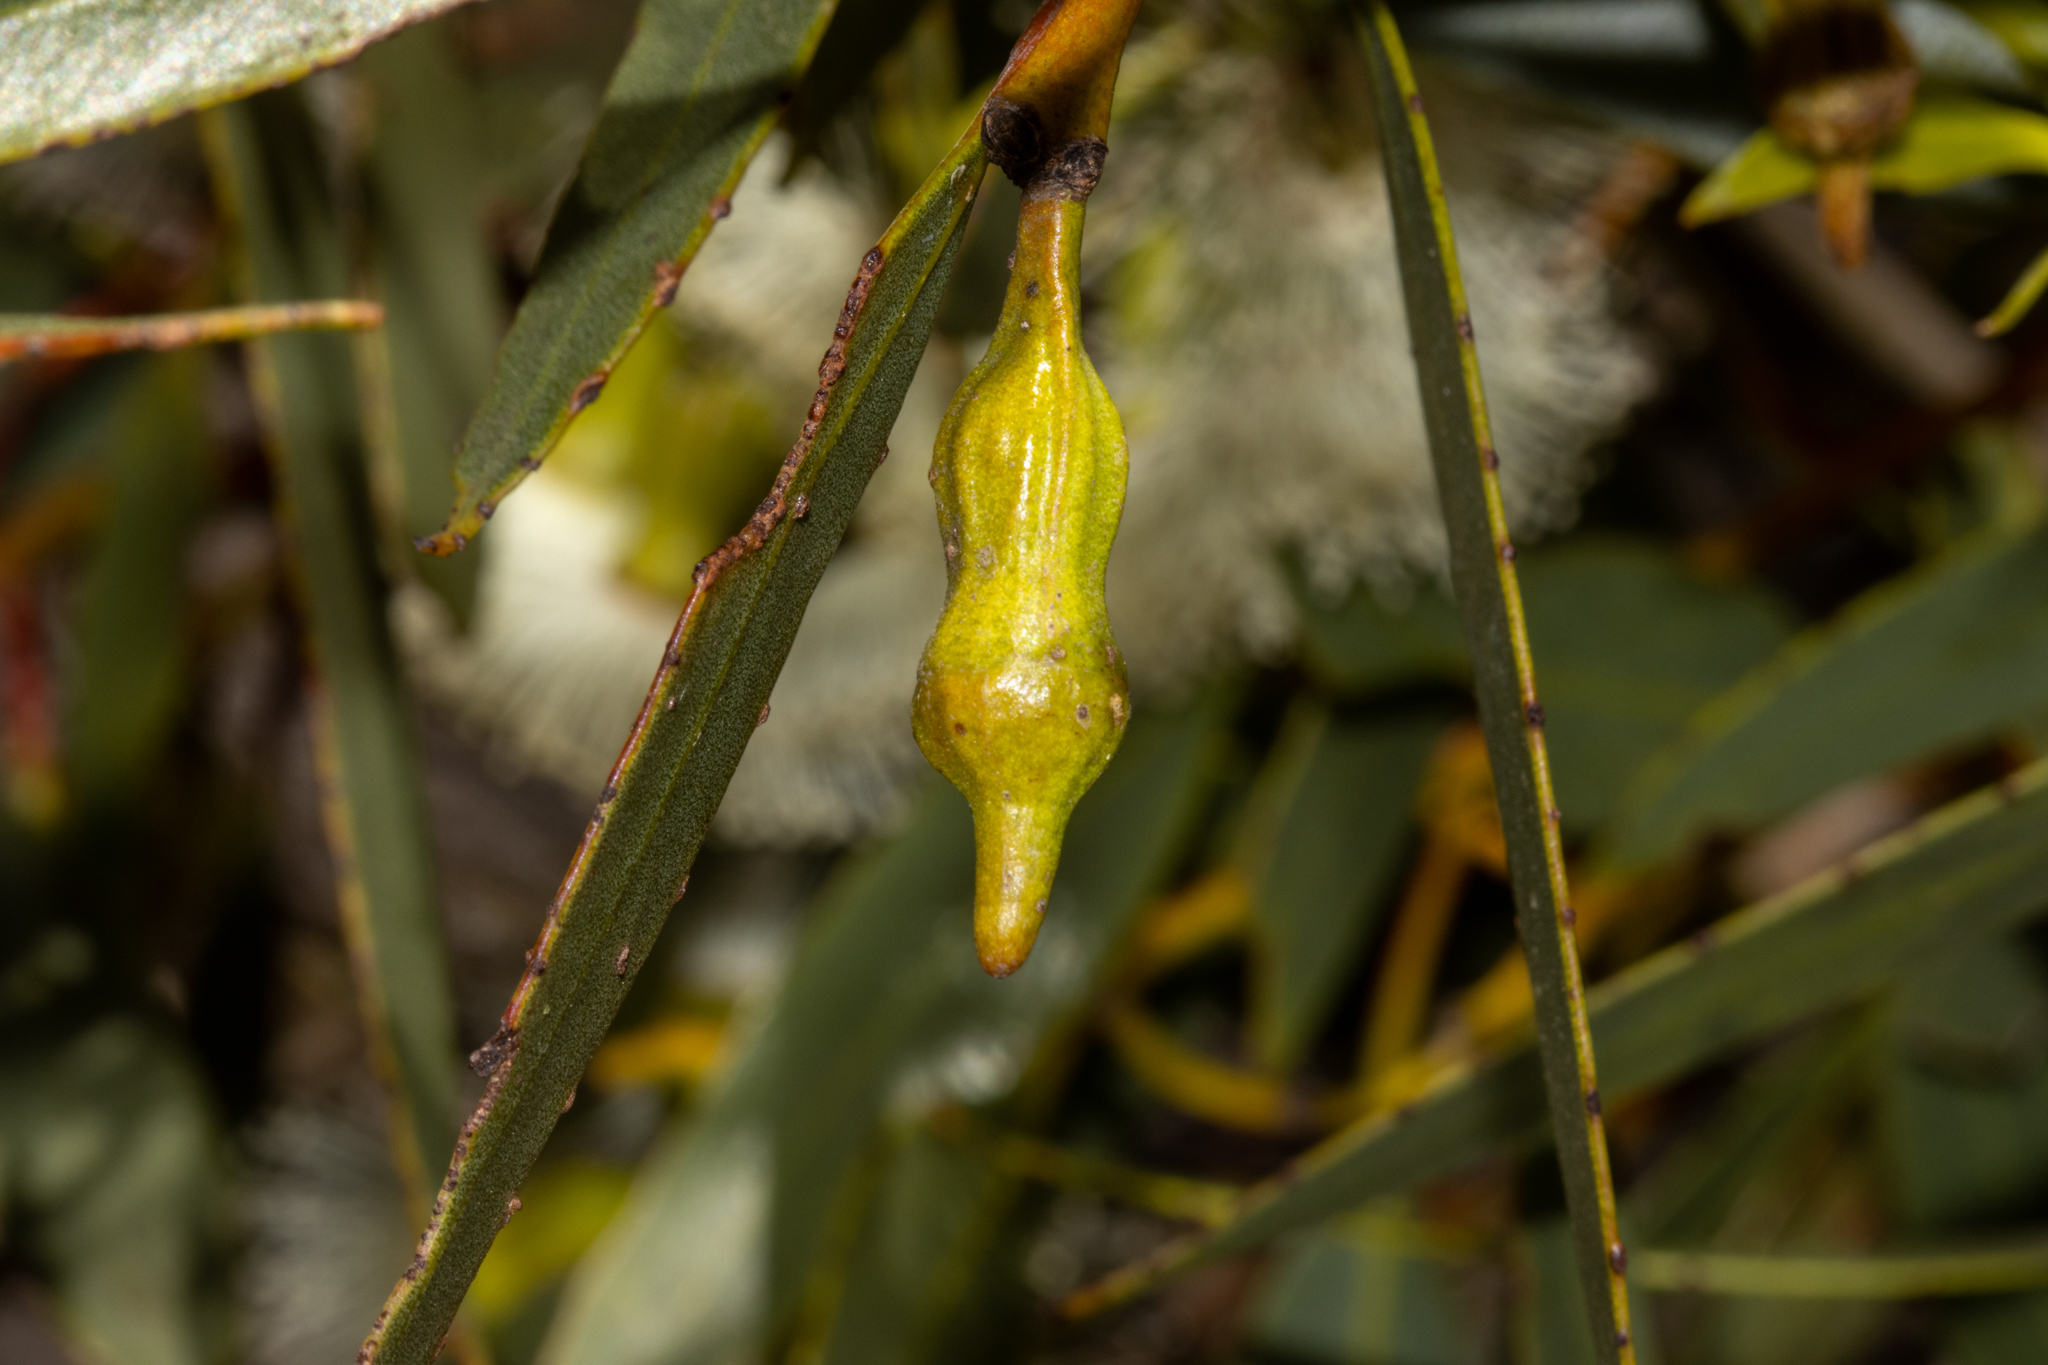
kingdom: Plantae
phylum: Tracheophyta
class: Magnoliopsida
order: Myrtales
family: Myrtaceae
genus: Eucalyptus
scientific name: Eucalyptus incrassata
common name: Ridge-fruit mallee
